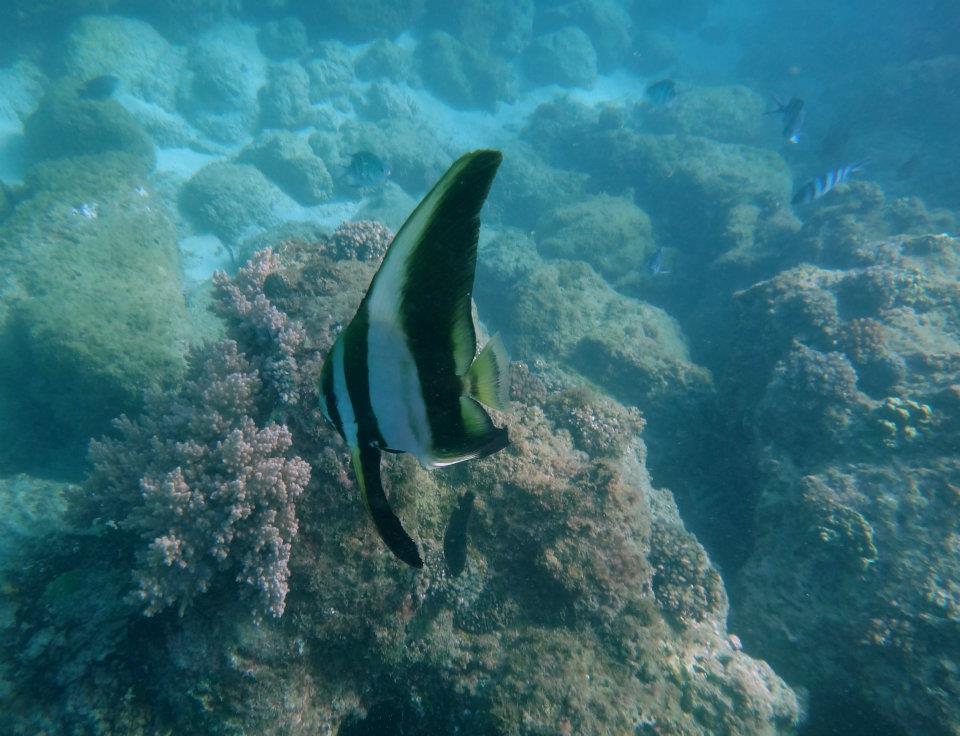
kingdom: Animalia
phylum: Chordata
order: Perciformes
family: Ephippidae
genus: Platax
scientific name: Platax teira
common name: Longfin baitfish
